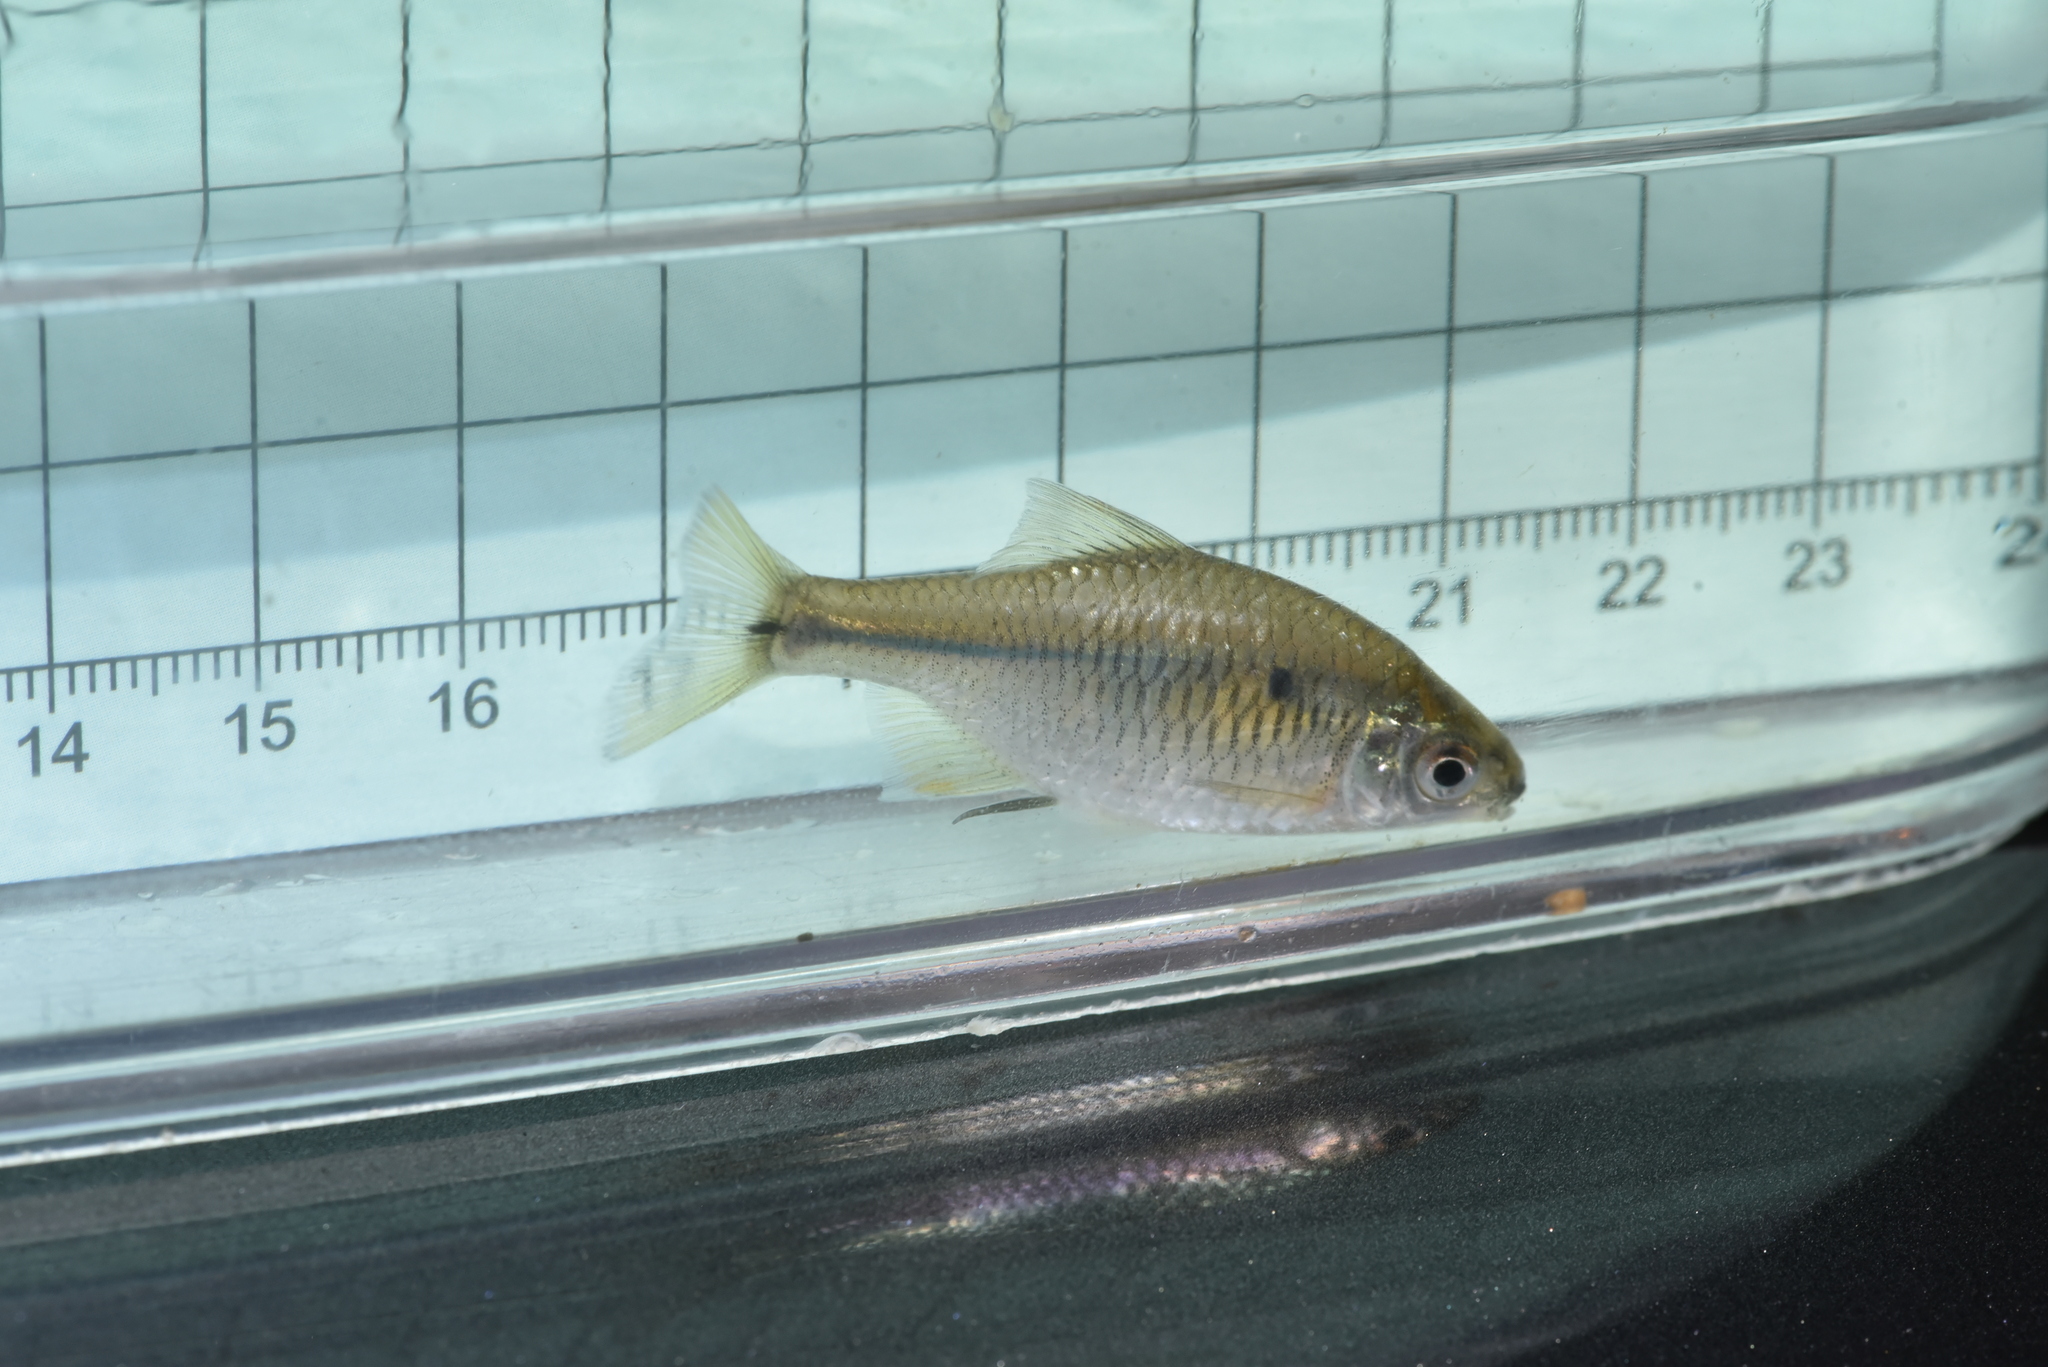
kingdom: Animalia
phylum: Chordata
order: Cypriniformes
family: Cyprinidae
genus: Paratanakia
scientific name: Paratanakia himantegus
